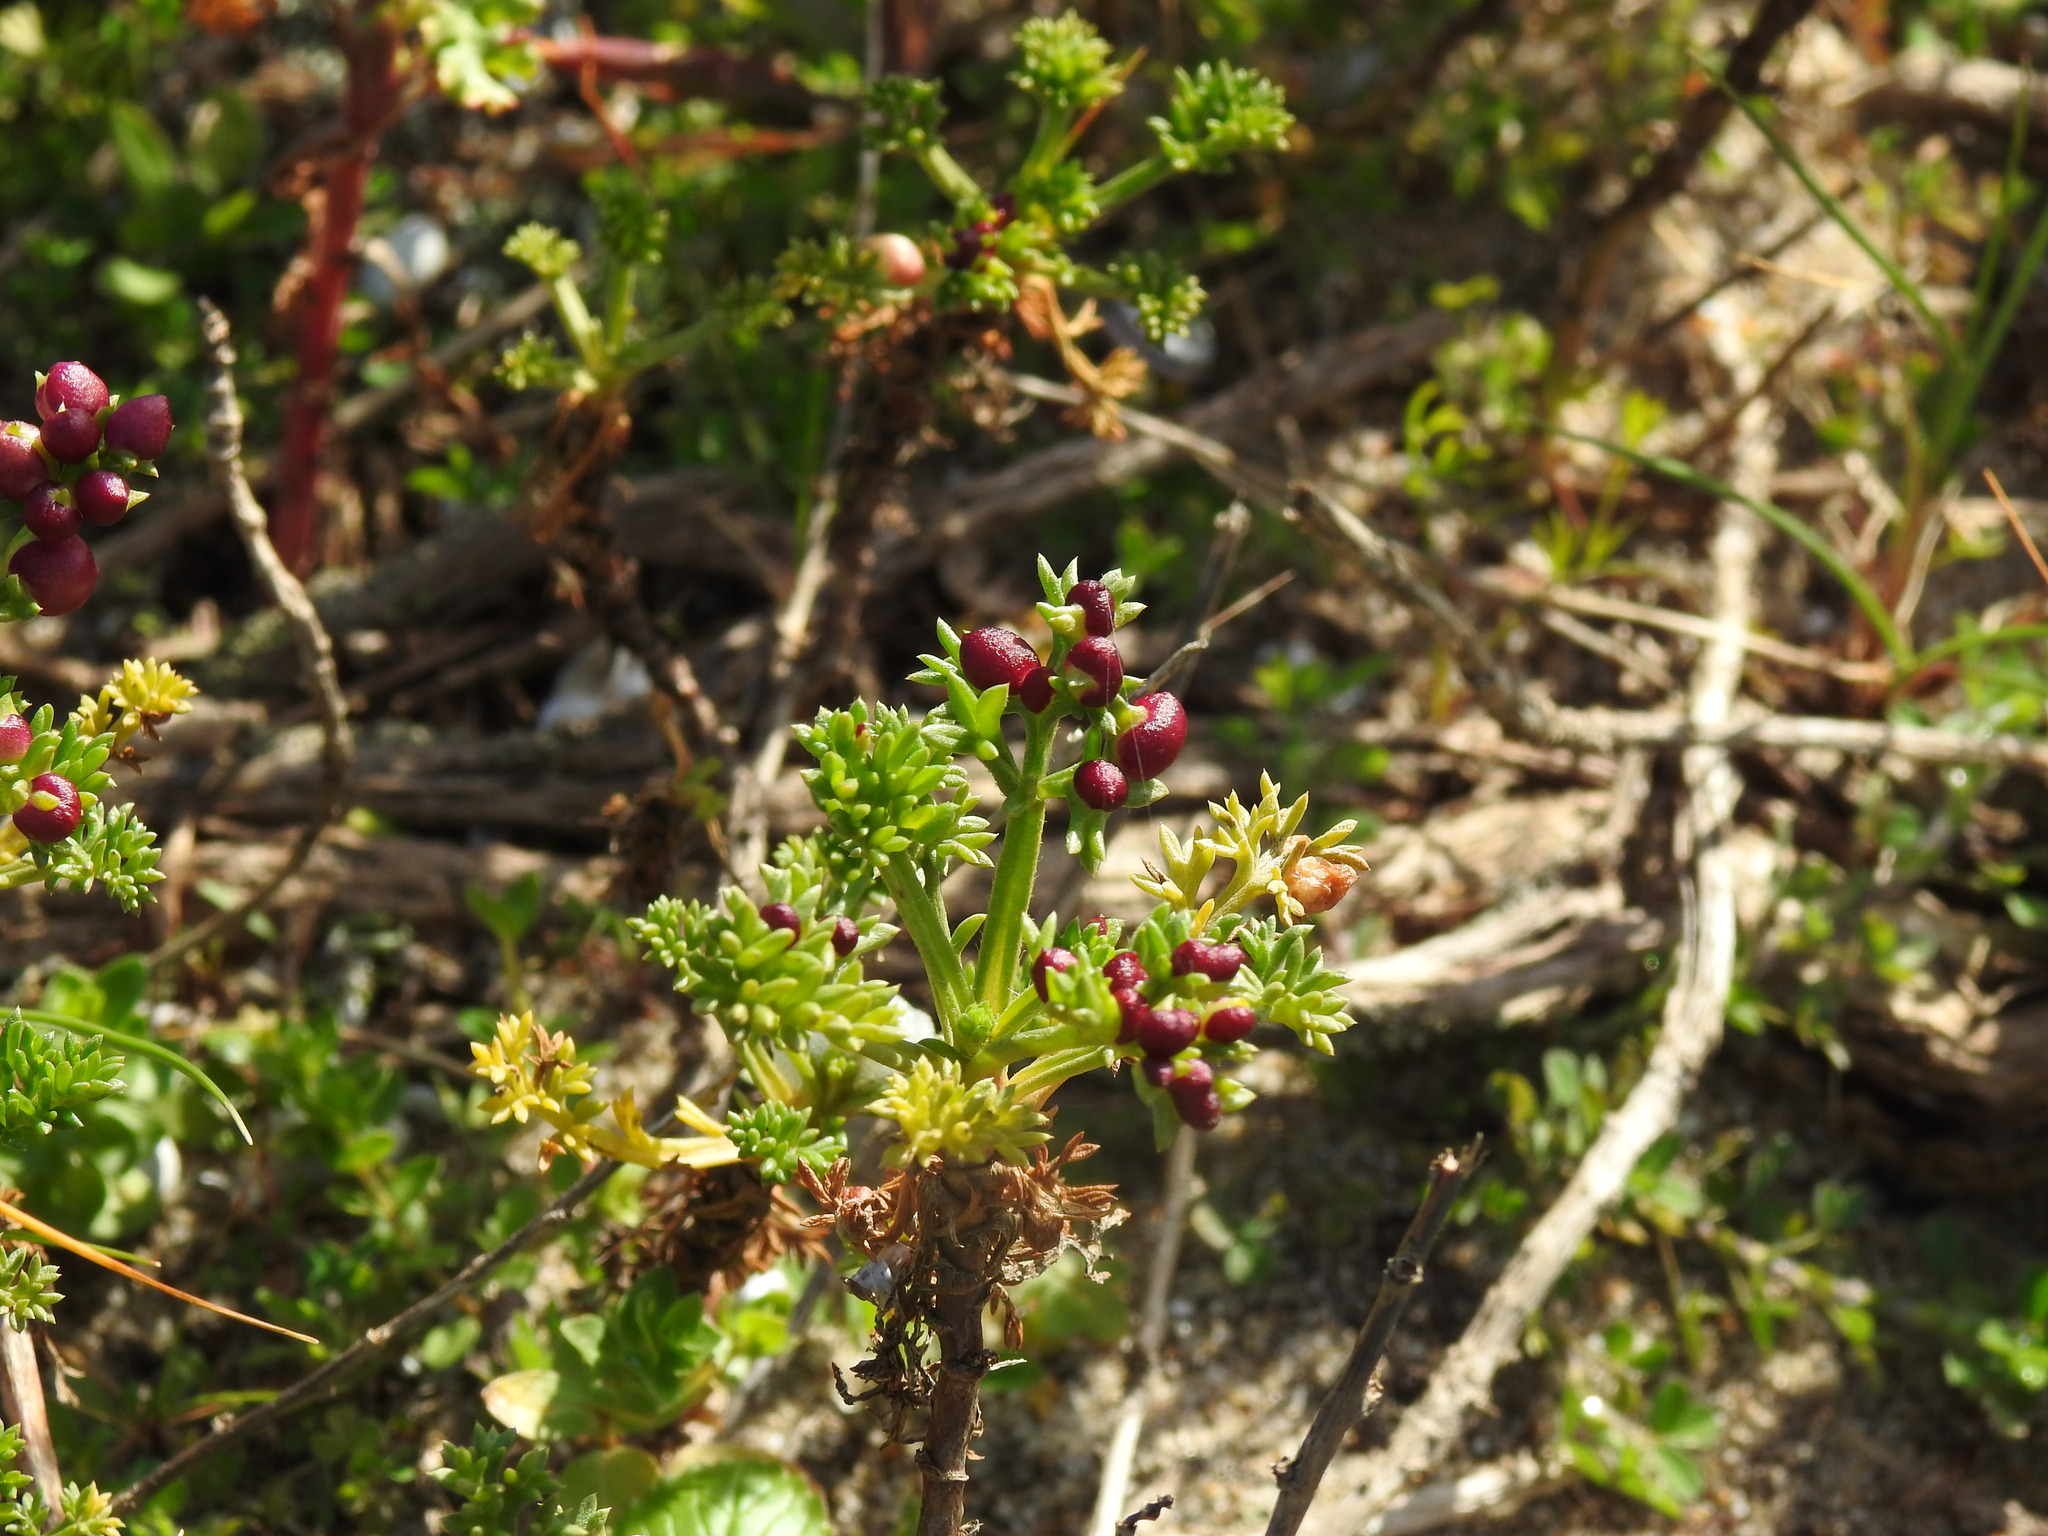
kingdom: Animalia
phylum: Arthropoda
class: Insecta
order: Diptera
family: Cecidomyiidae
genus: Rhopalomyia
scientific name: Rhopalomyia baccarum
